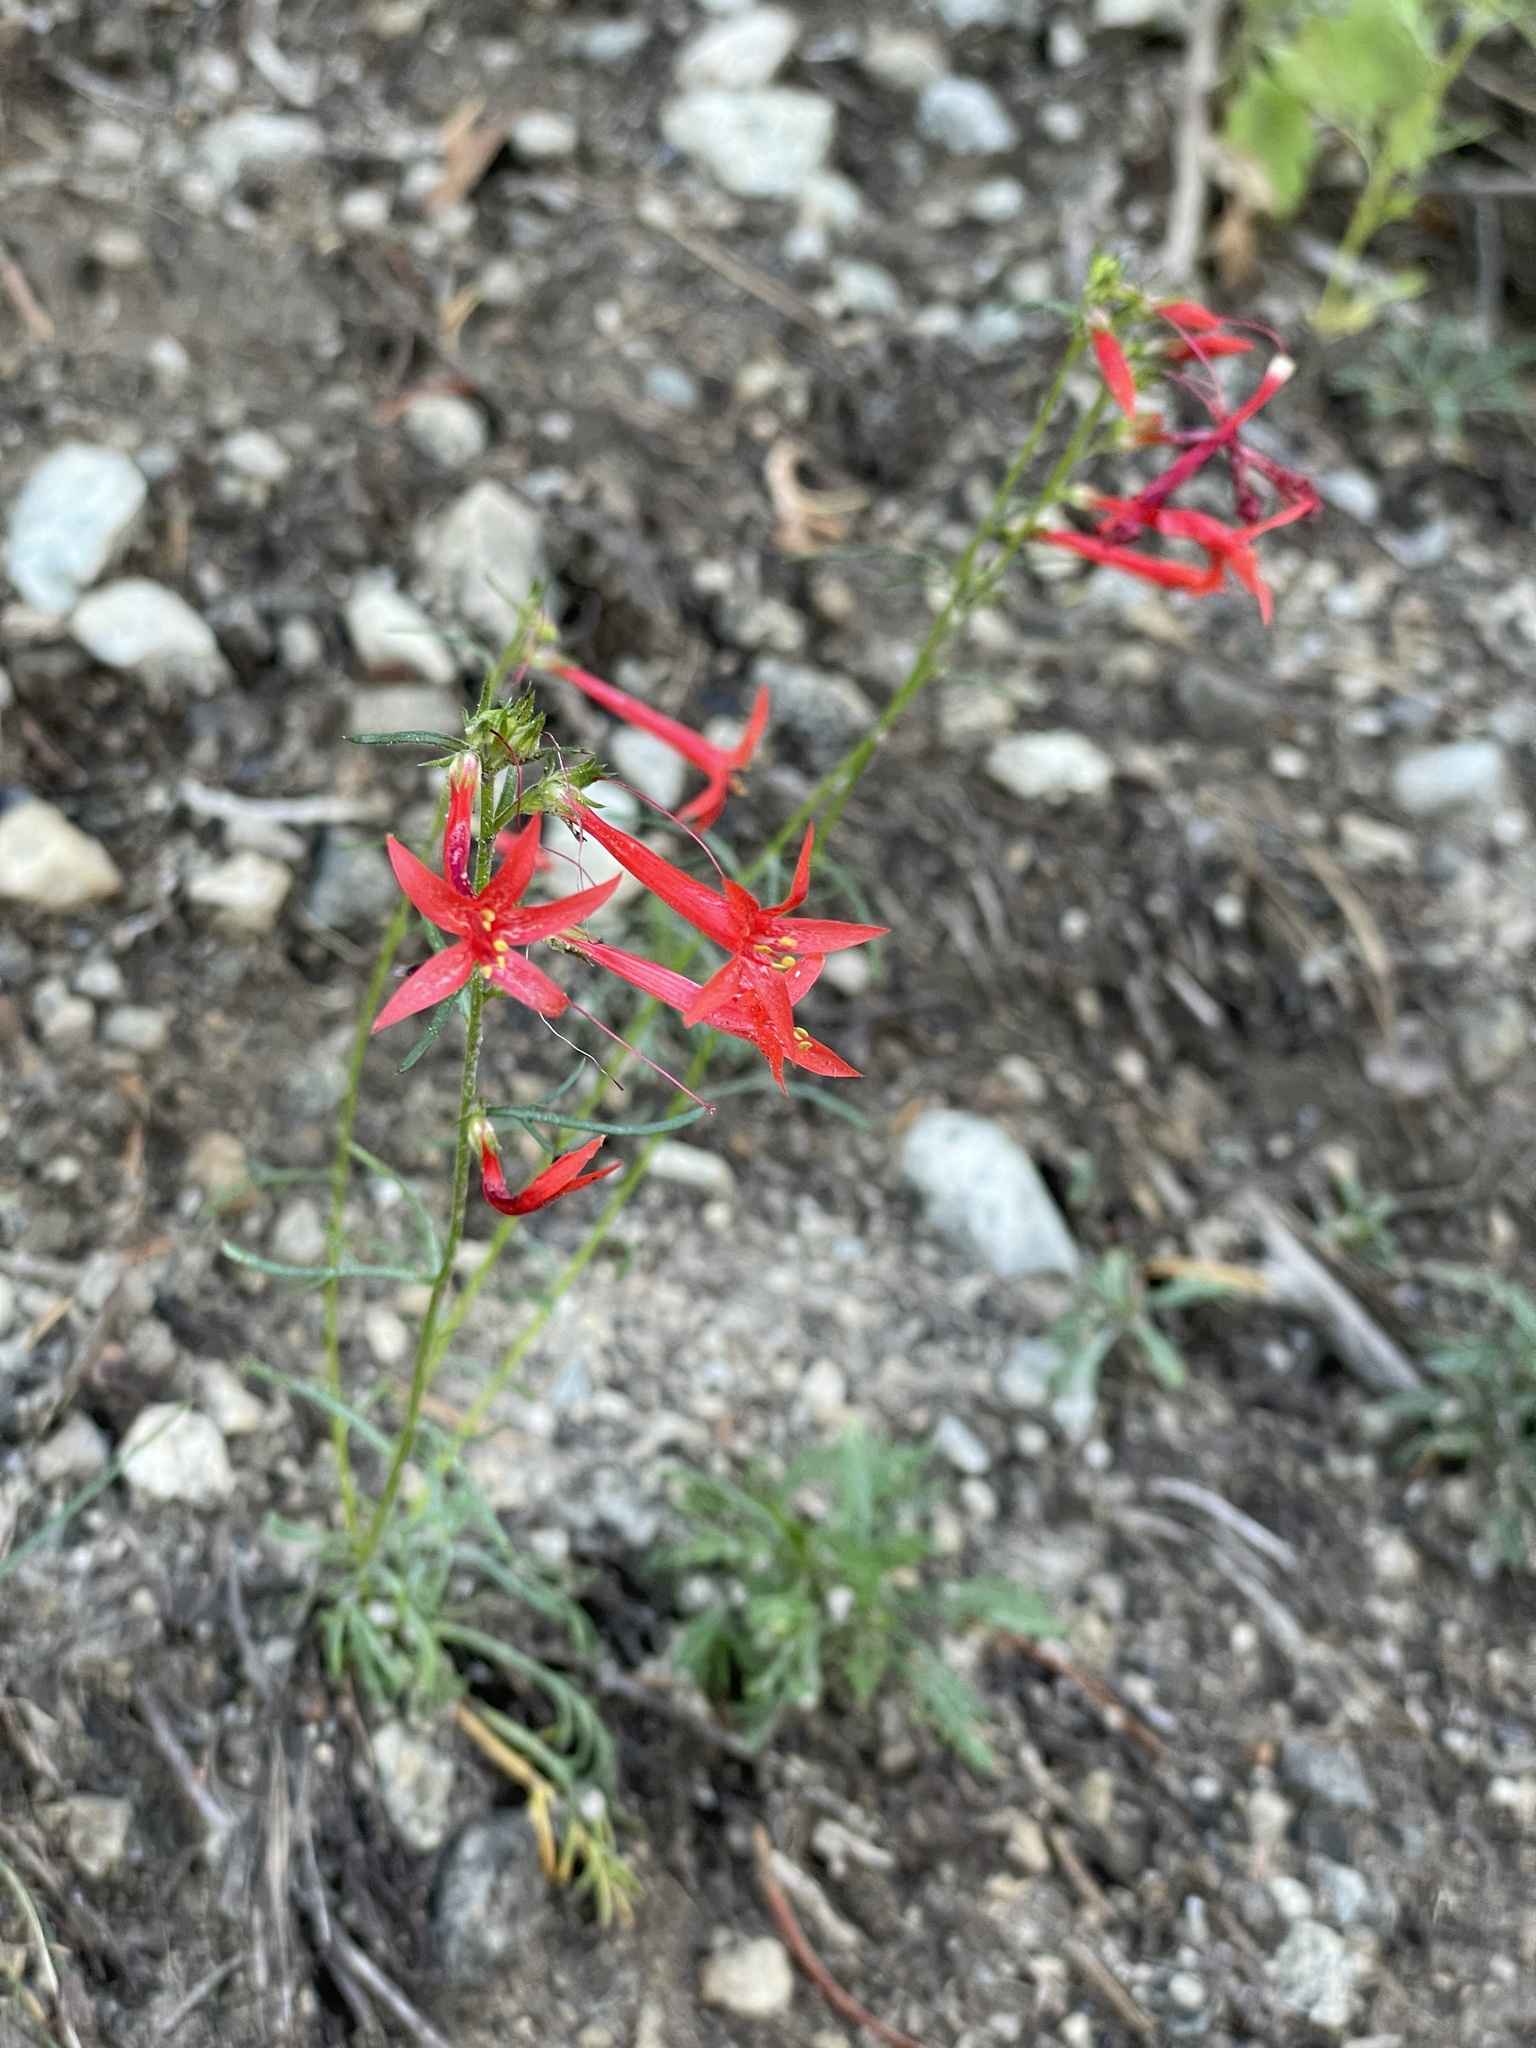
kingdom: Plantae
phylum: Tracheophyta
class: Magnoliopsida
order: Ericales
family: Polemoniaceae
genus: Ipomopsis
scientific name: Ipomopsis aggregata
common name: Scarlet gilia
